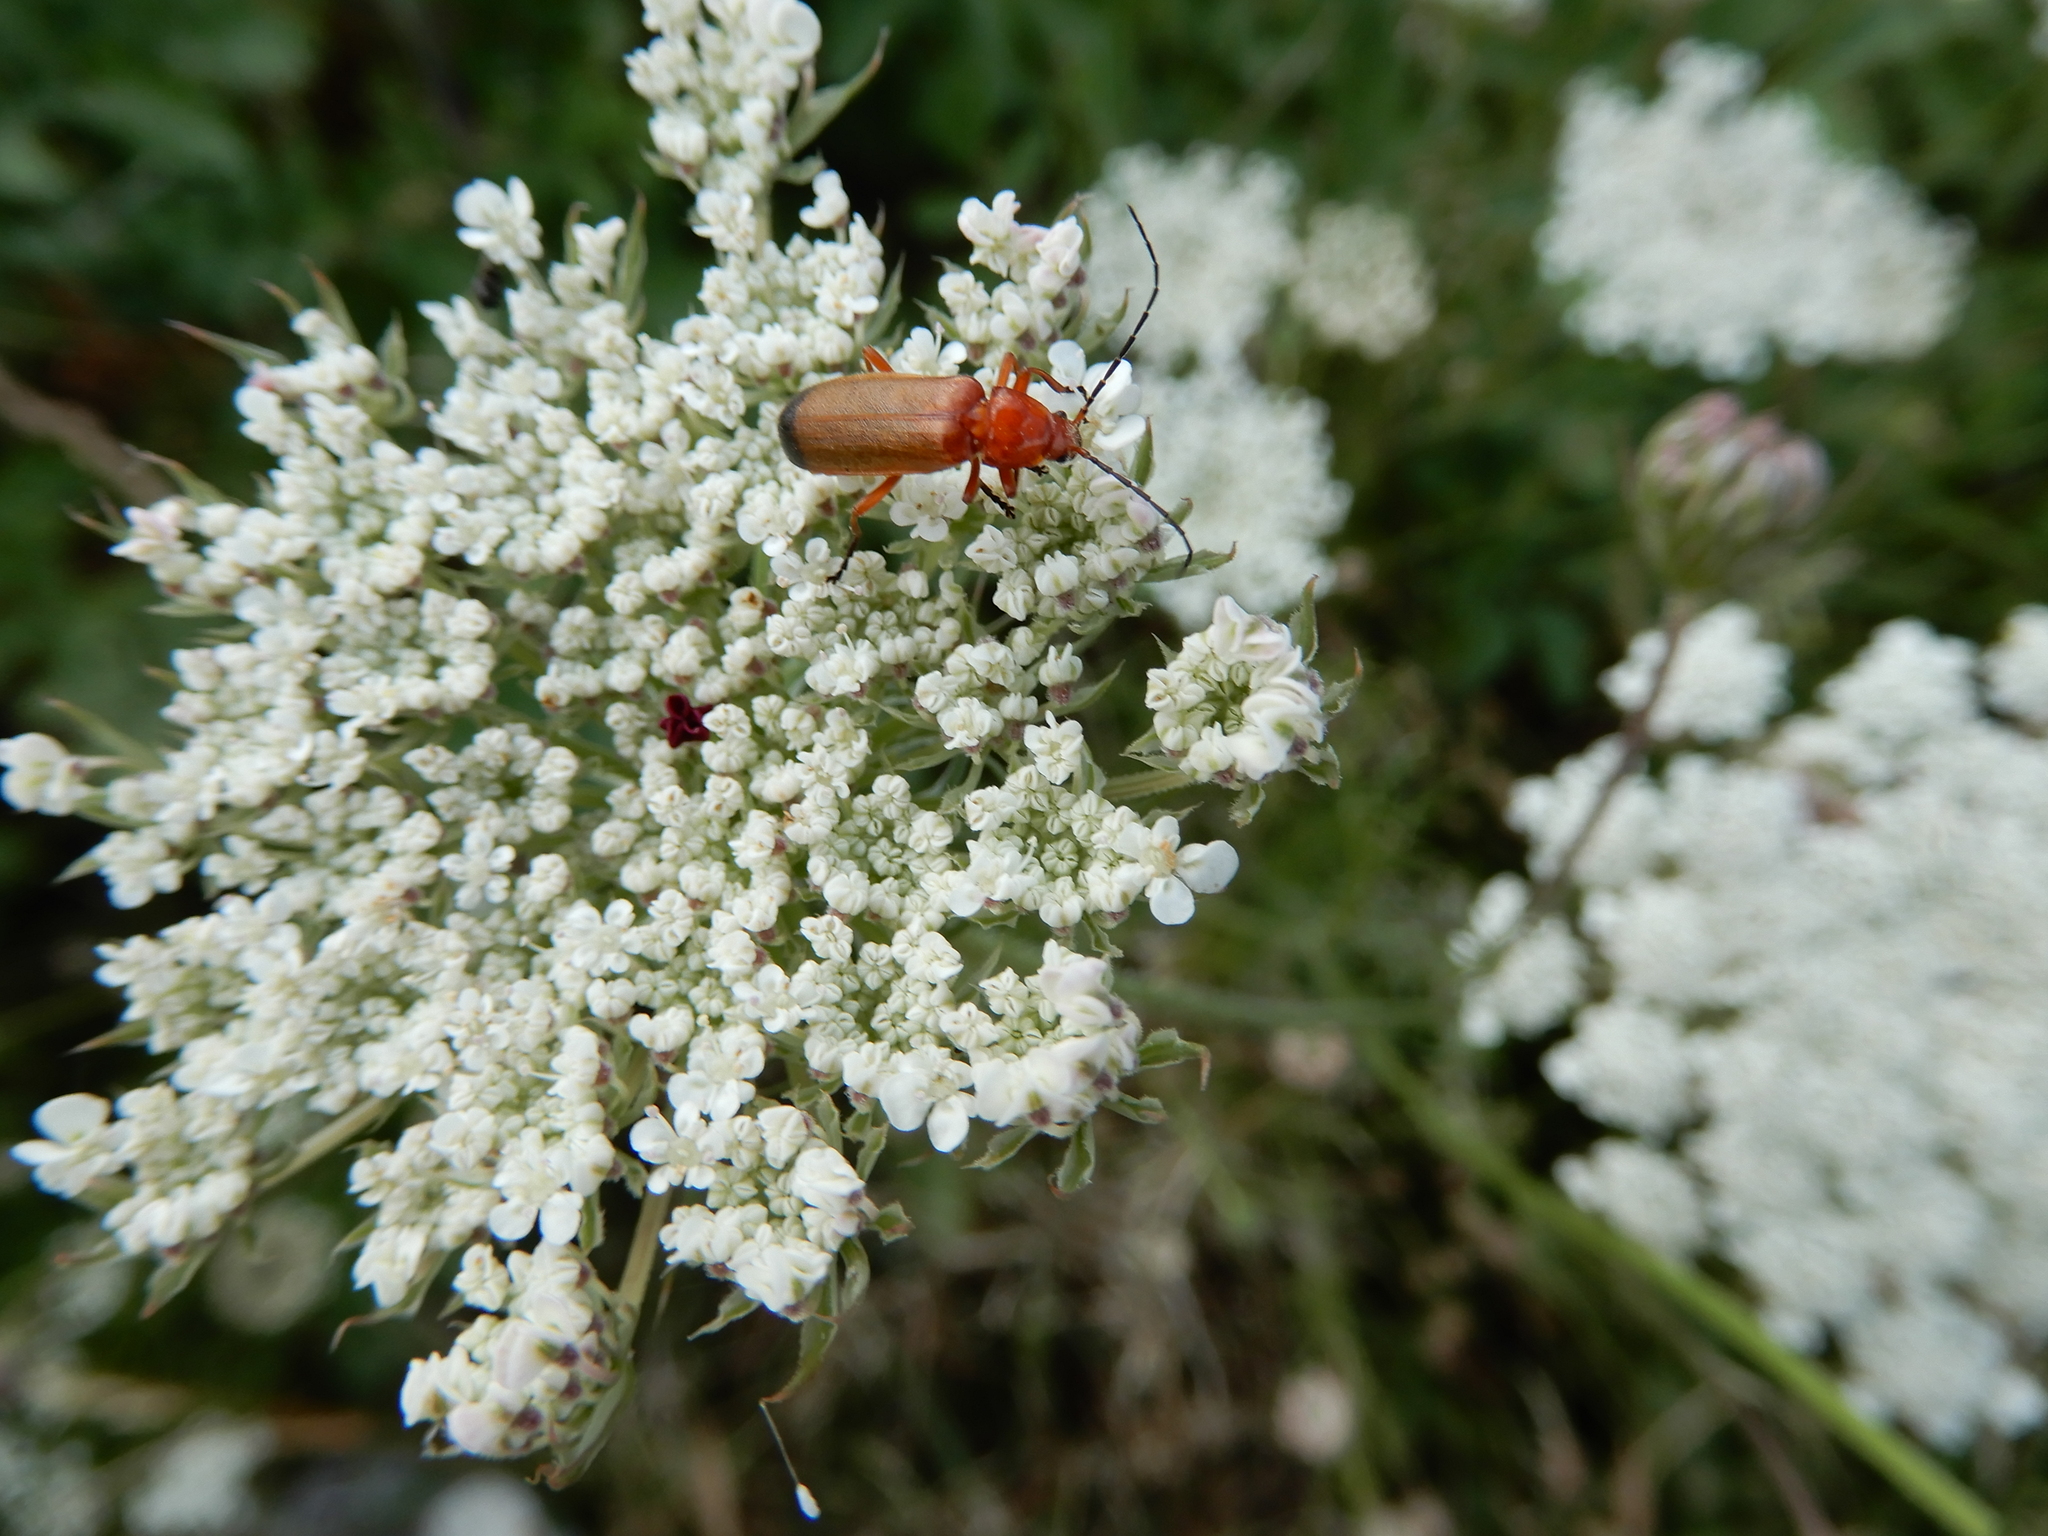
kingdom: Animalia
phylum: Arthropoda
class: Insecta
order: Coleoptera
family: Cantharidae
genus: Rhagonycha
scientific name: Rhagonycha fulva
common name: Common red soldier beetle
